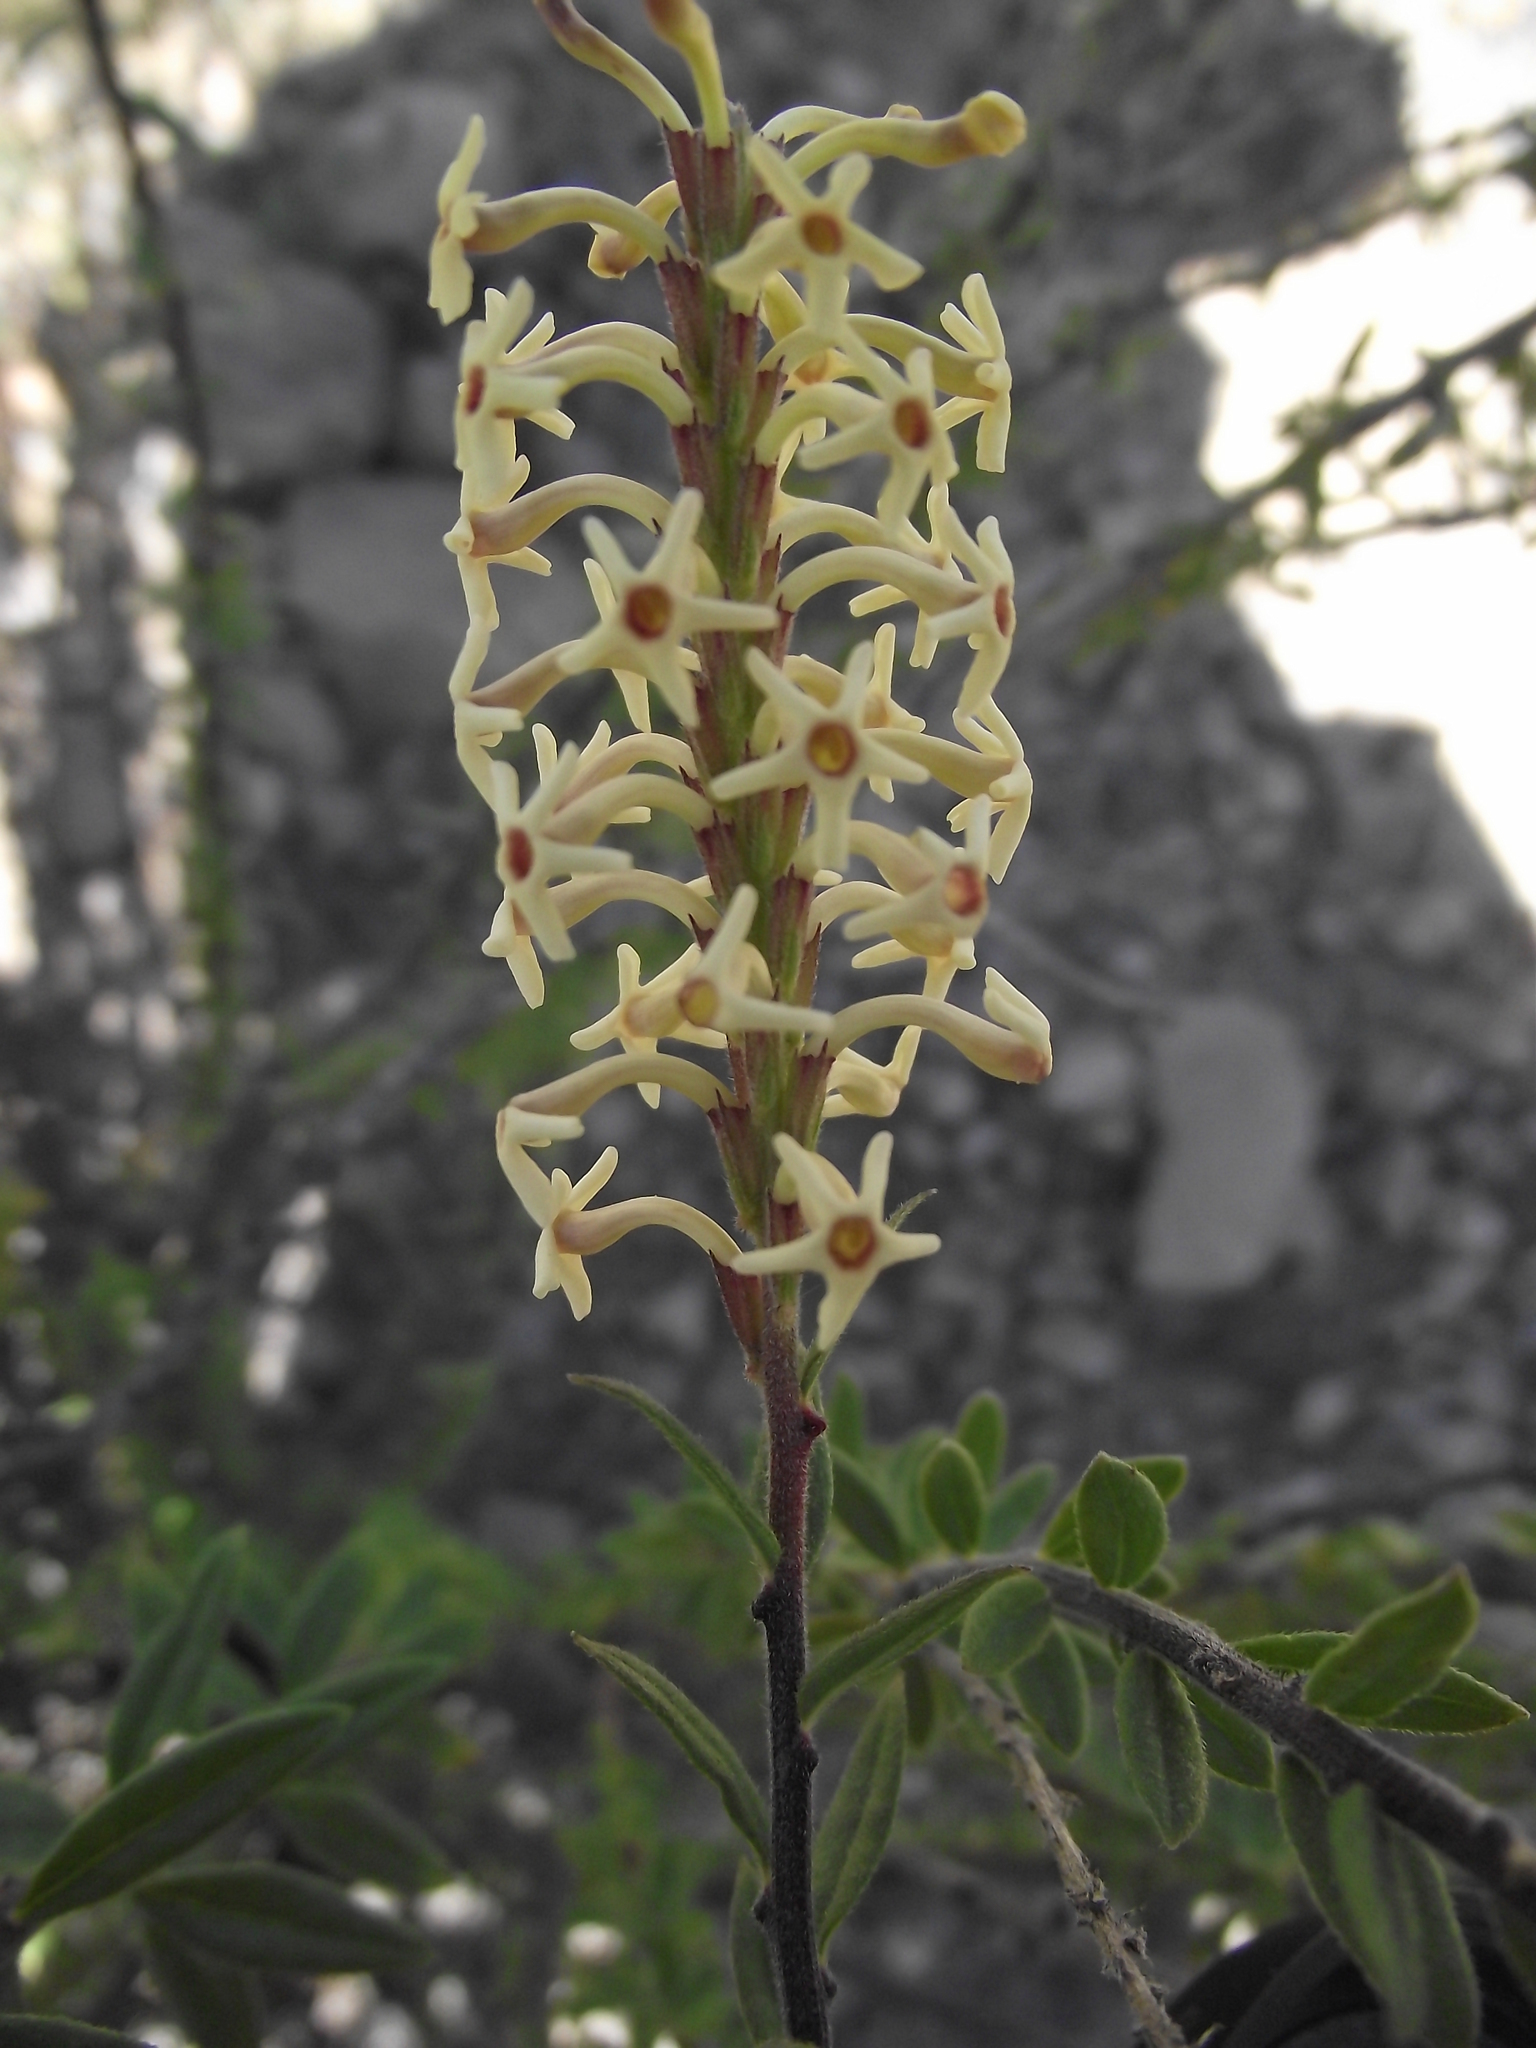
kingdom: Plantae
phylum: Tracheophyta
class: Magnoliopsida
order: Lamiales
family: Verbenaceae
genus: Mulguraea
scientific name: Mulguraea arequipensis
